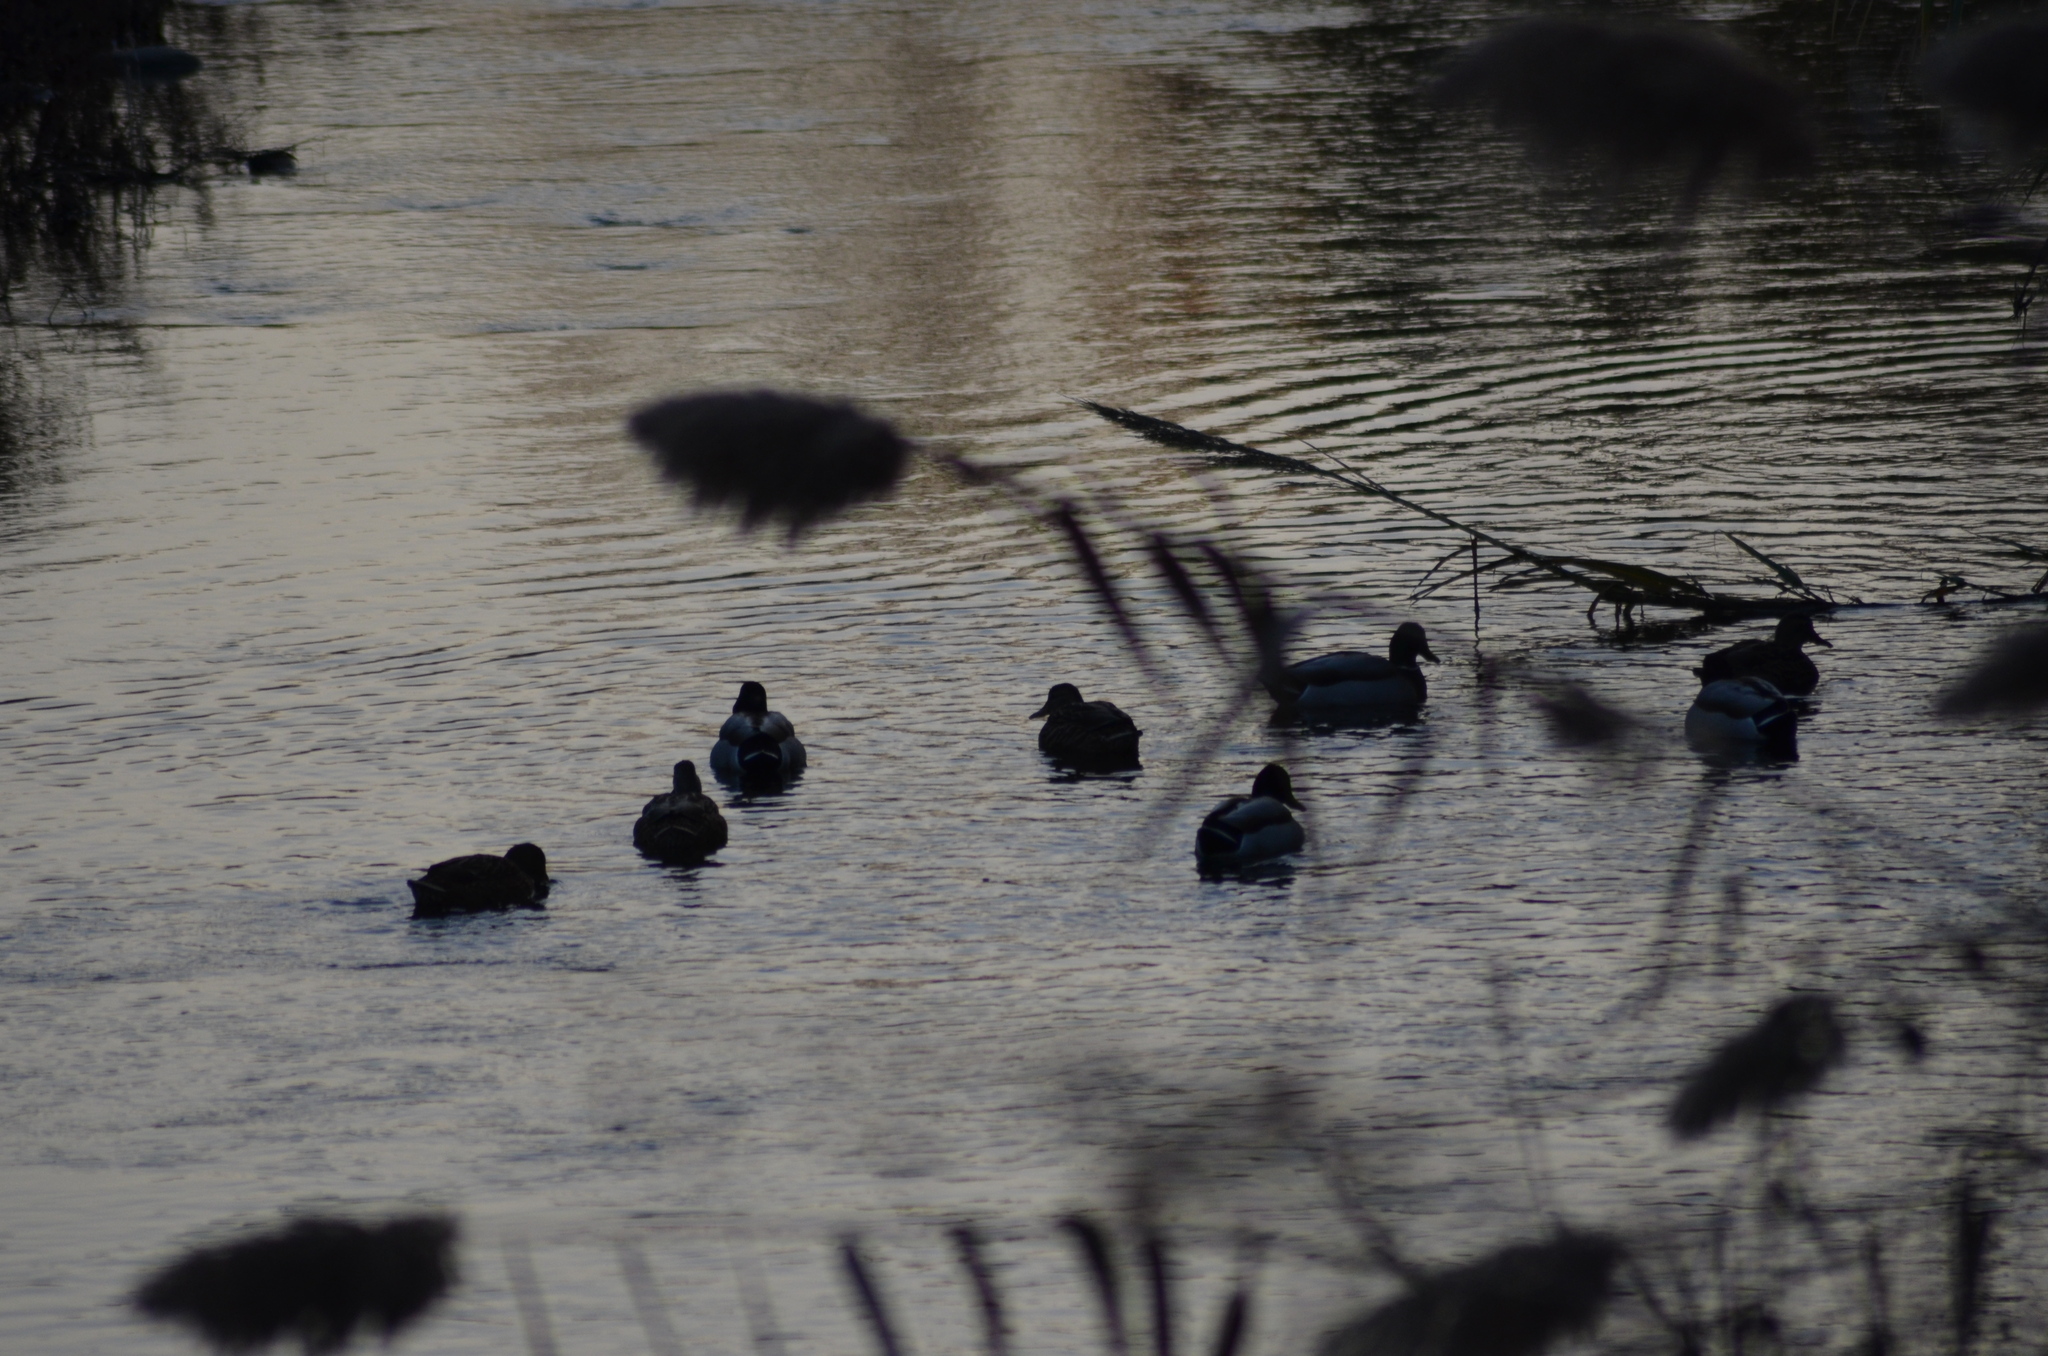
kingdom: Animalia
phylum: Chordata
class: Aves
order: Anseriformes
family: Anatidae
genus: Anas
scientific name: Anas platyrhynchos
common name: Mallard
